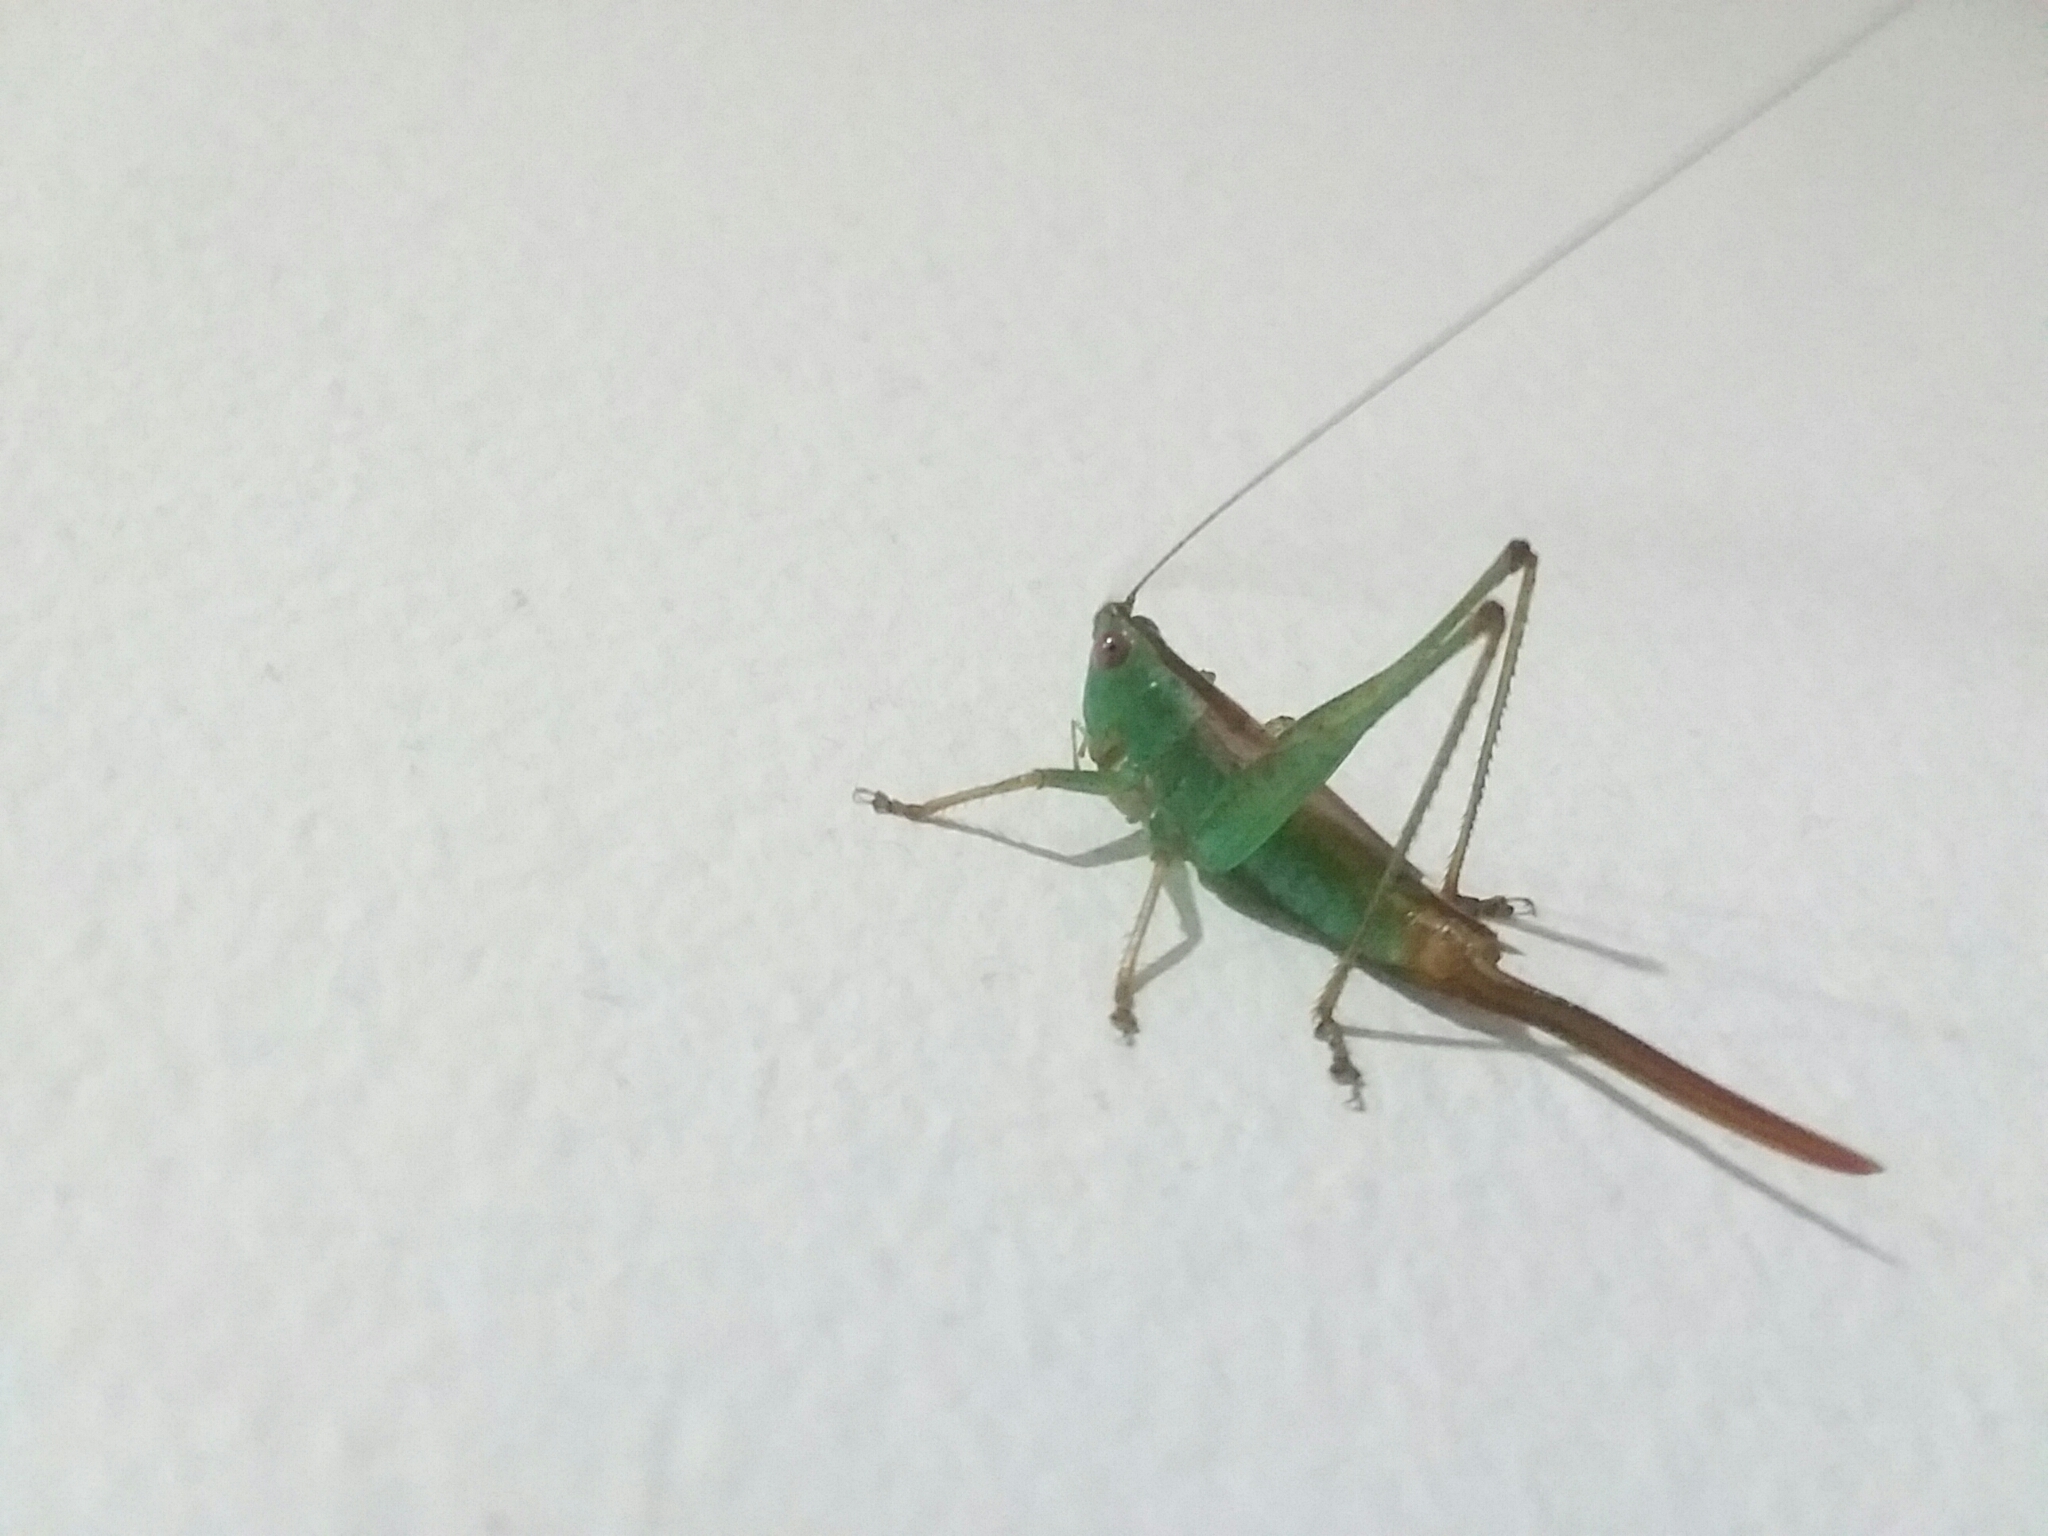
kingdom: Animalia
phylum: Arthropoda
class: Insecta
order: Orthoptera
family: Tettigoniidae
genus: Conocephalus
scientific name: Conocephalus brevipennis
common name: Short-winged meadow katydid
